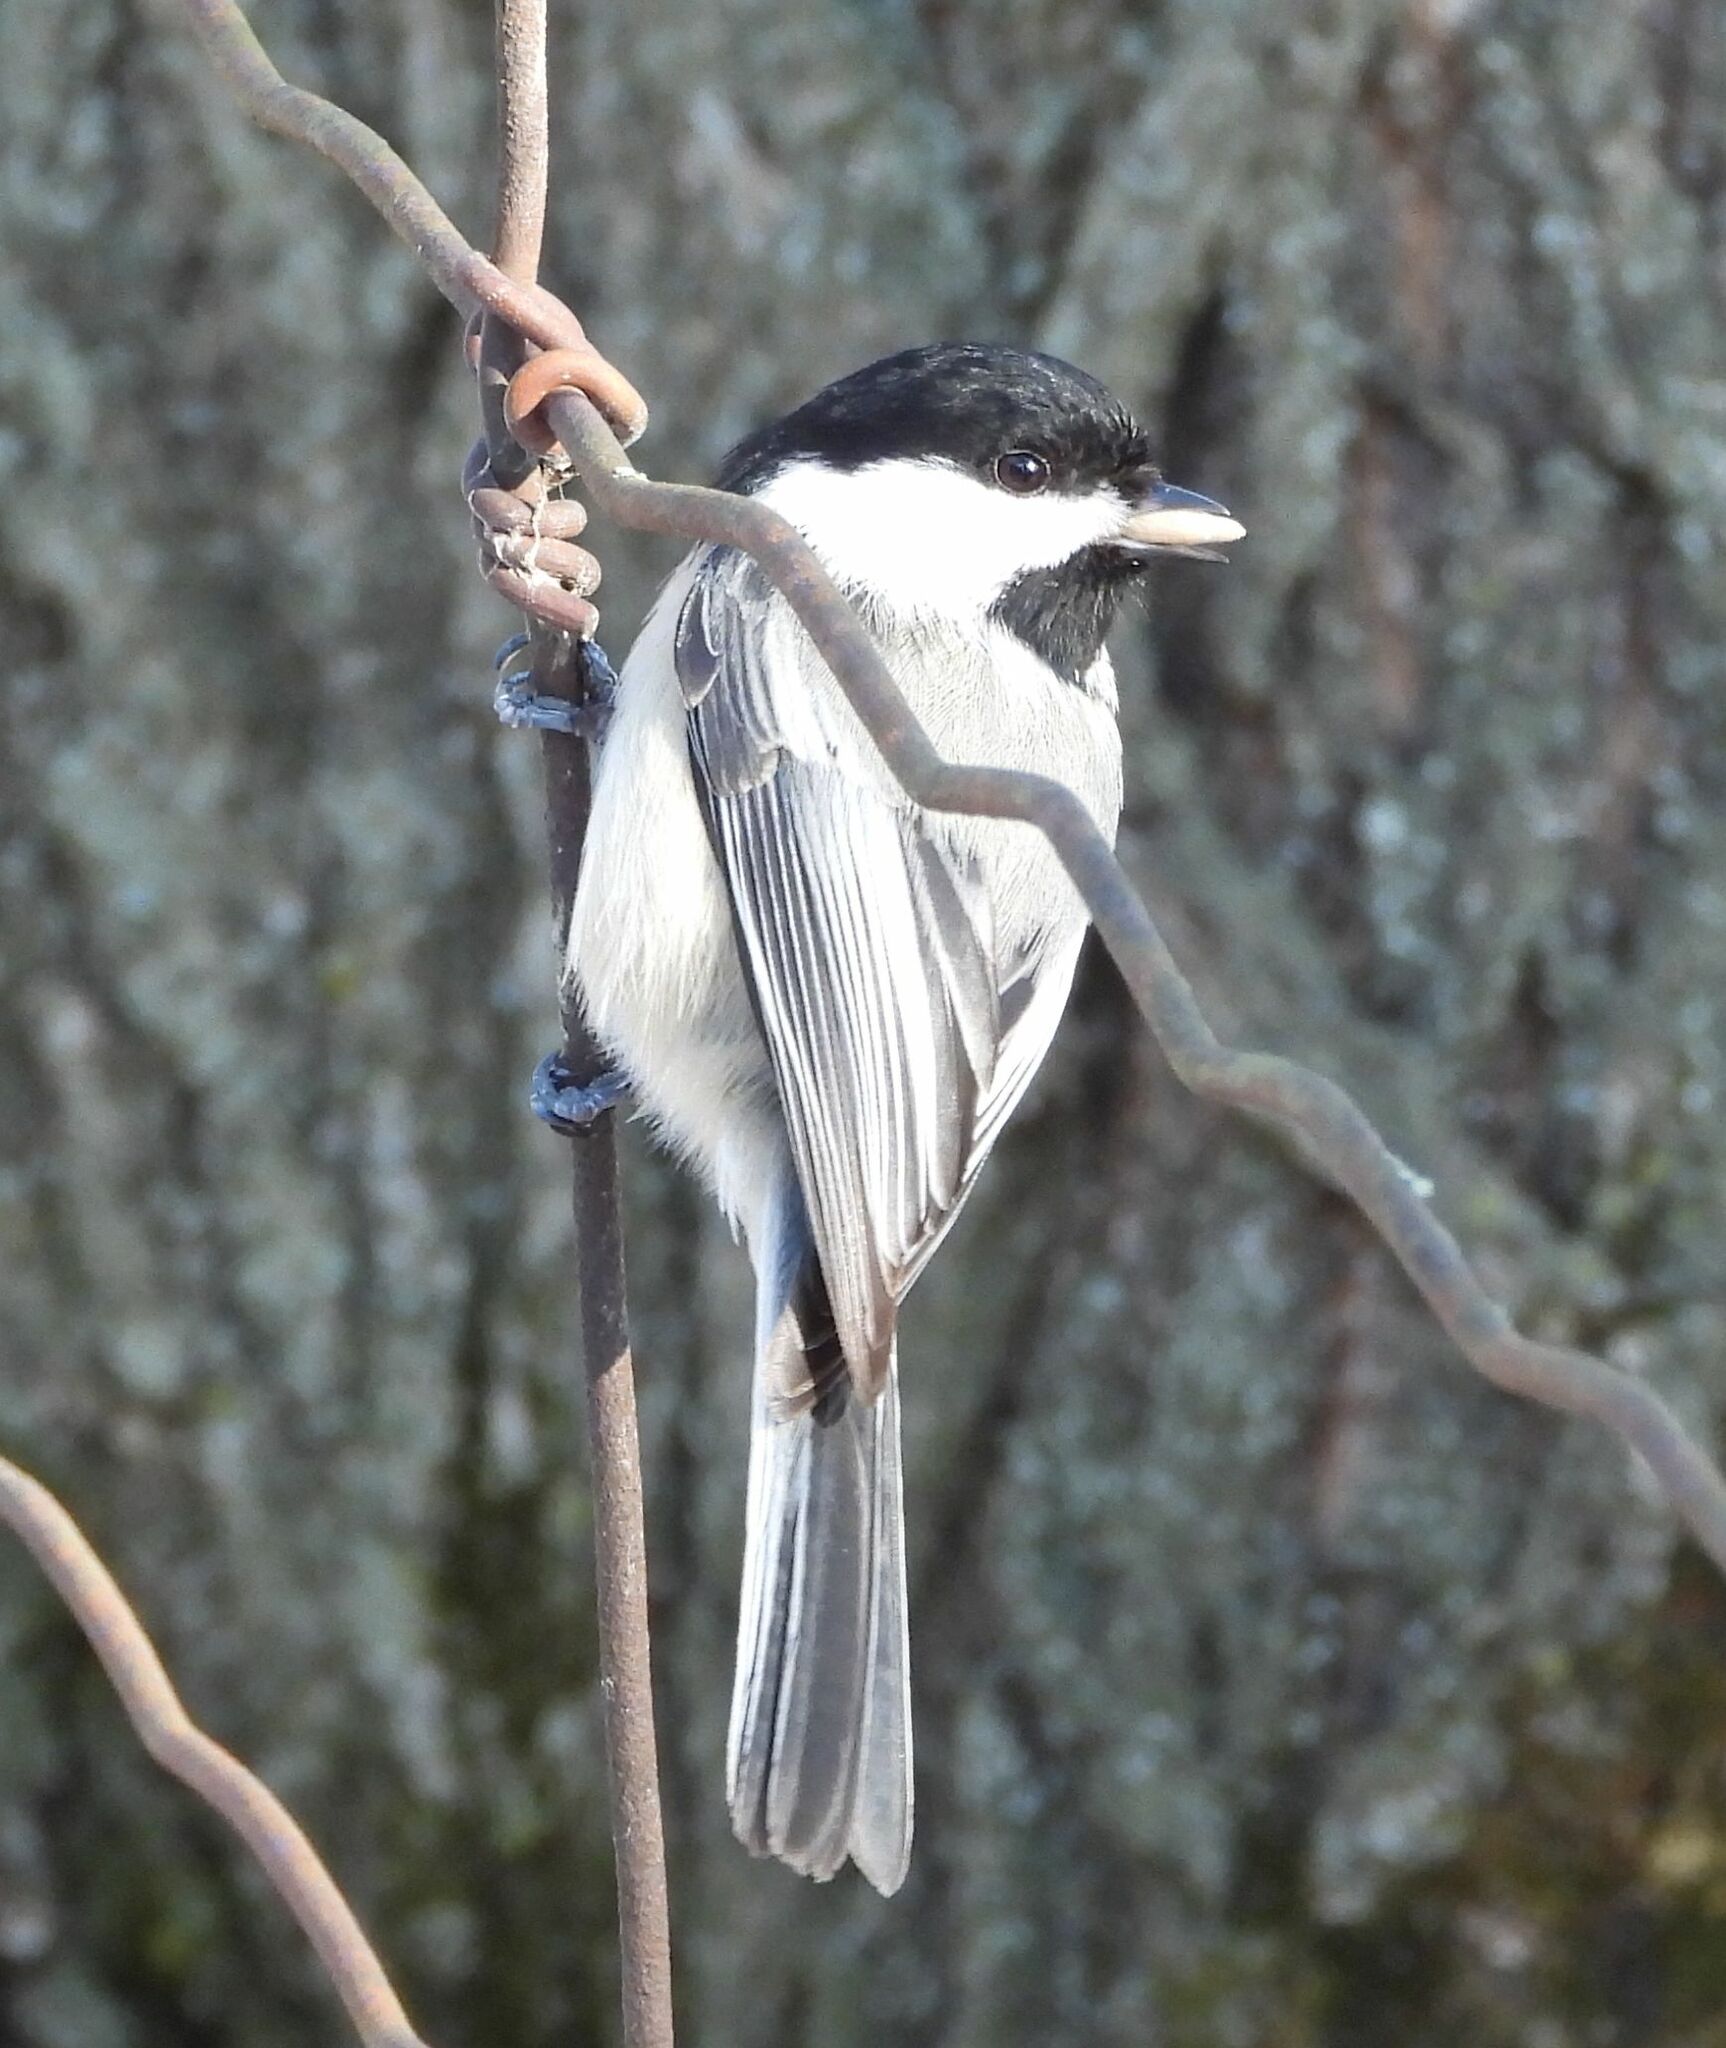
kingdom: Animalia
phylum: Chordata
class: Aves
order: Passeriformes
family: Paridae
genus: Poecile
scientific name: Poecile atricapillus
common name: Black-capped chickadee
